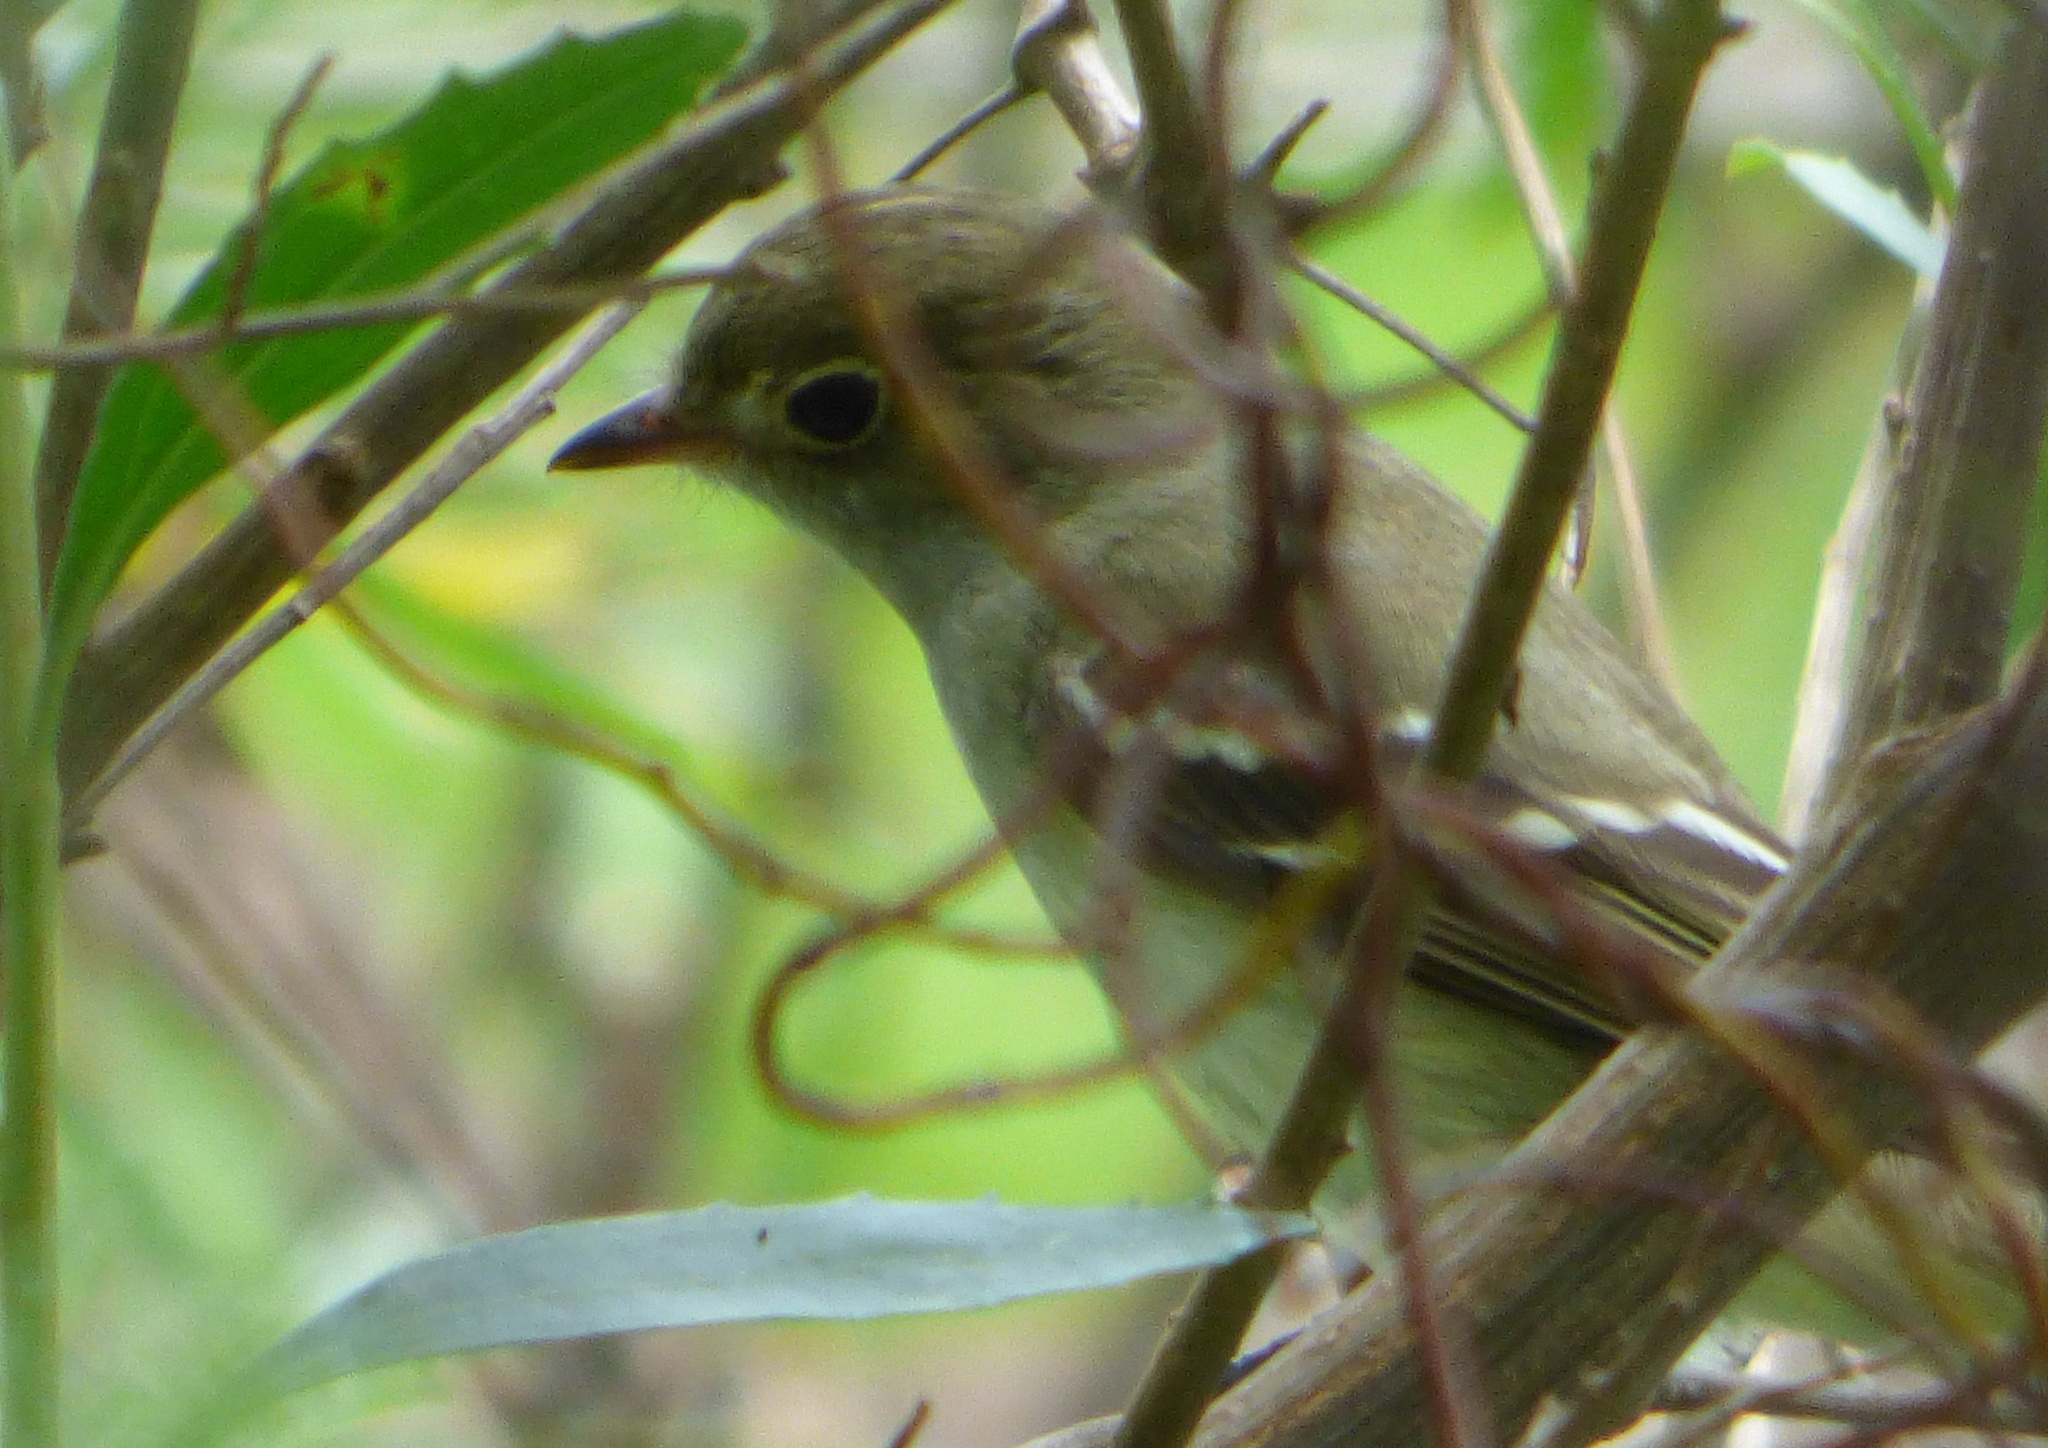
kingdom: Animalia
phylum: Chordata
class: Aves
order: Passeriformes
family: Tyrannidae
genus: Elaenia
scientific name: Elaenia parvirostris
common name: Small-billed elaenia
